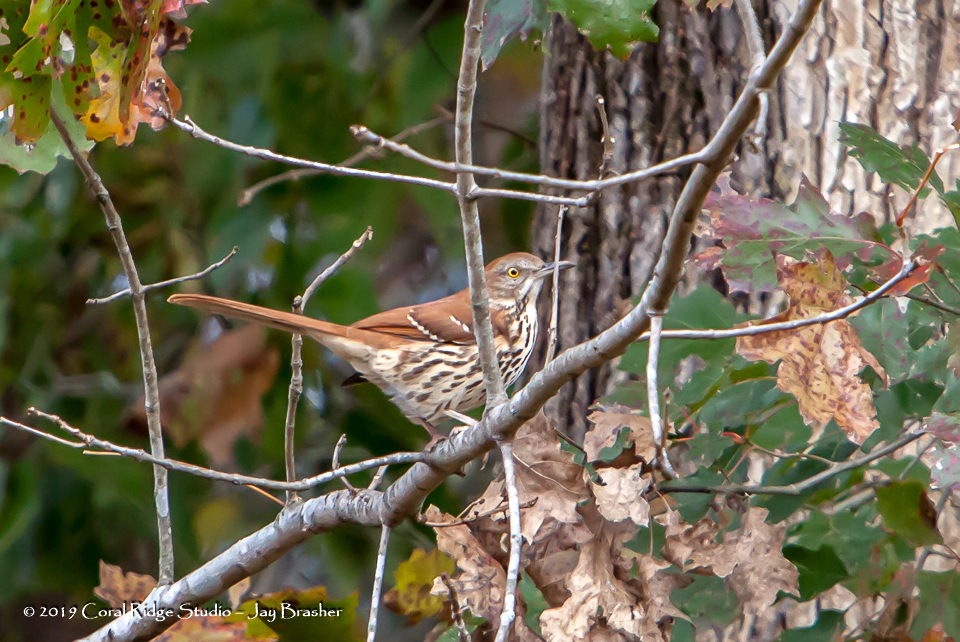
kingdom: Animalia
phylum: Chordata
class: Aves
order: Passeriformes
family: Mimidae
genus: Toxostoma
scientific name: Toxostoma rufum
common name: Brown thrasher
